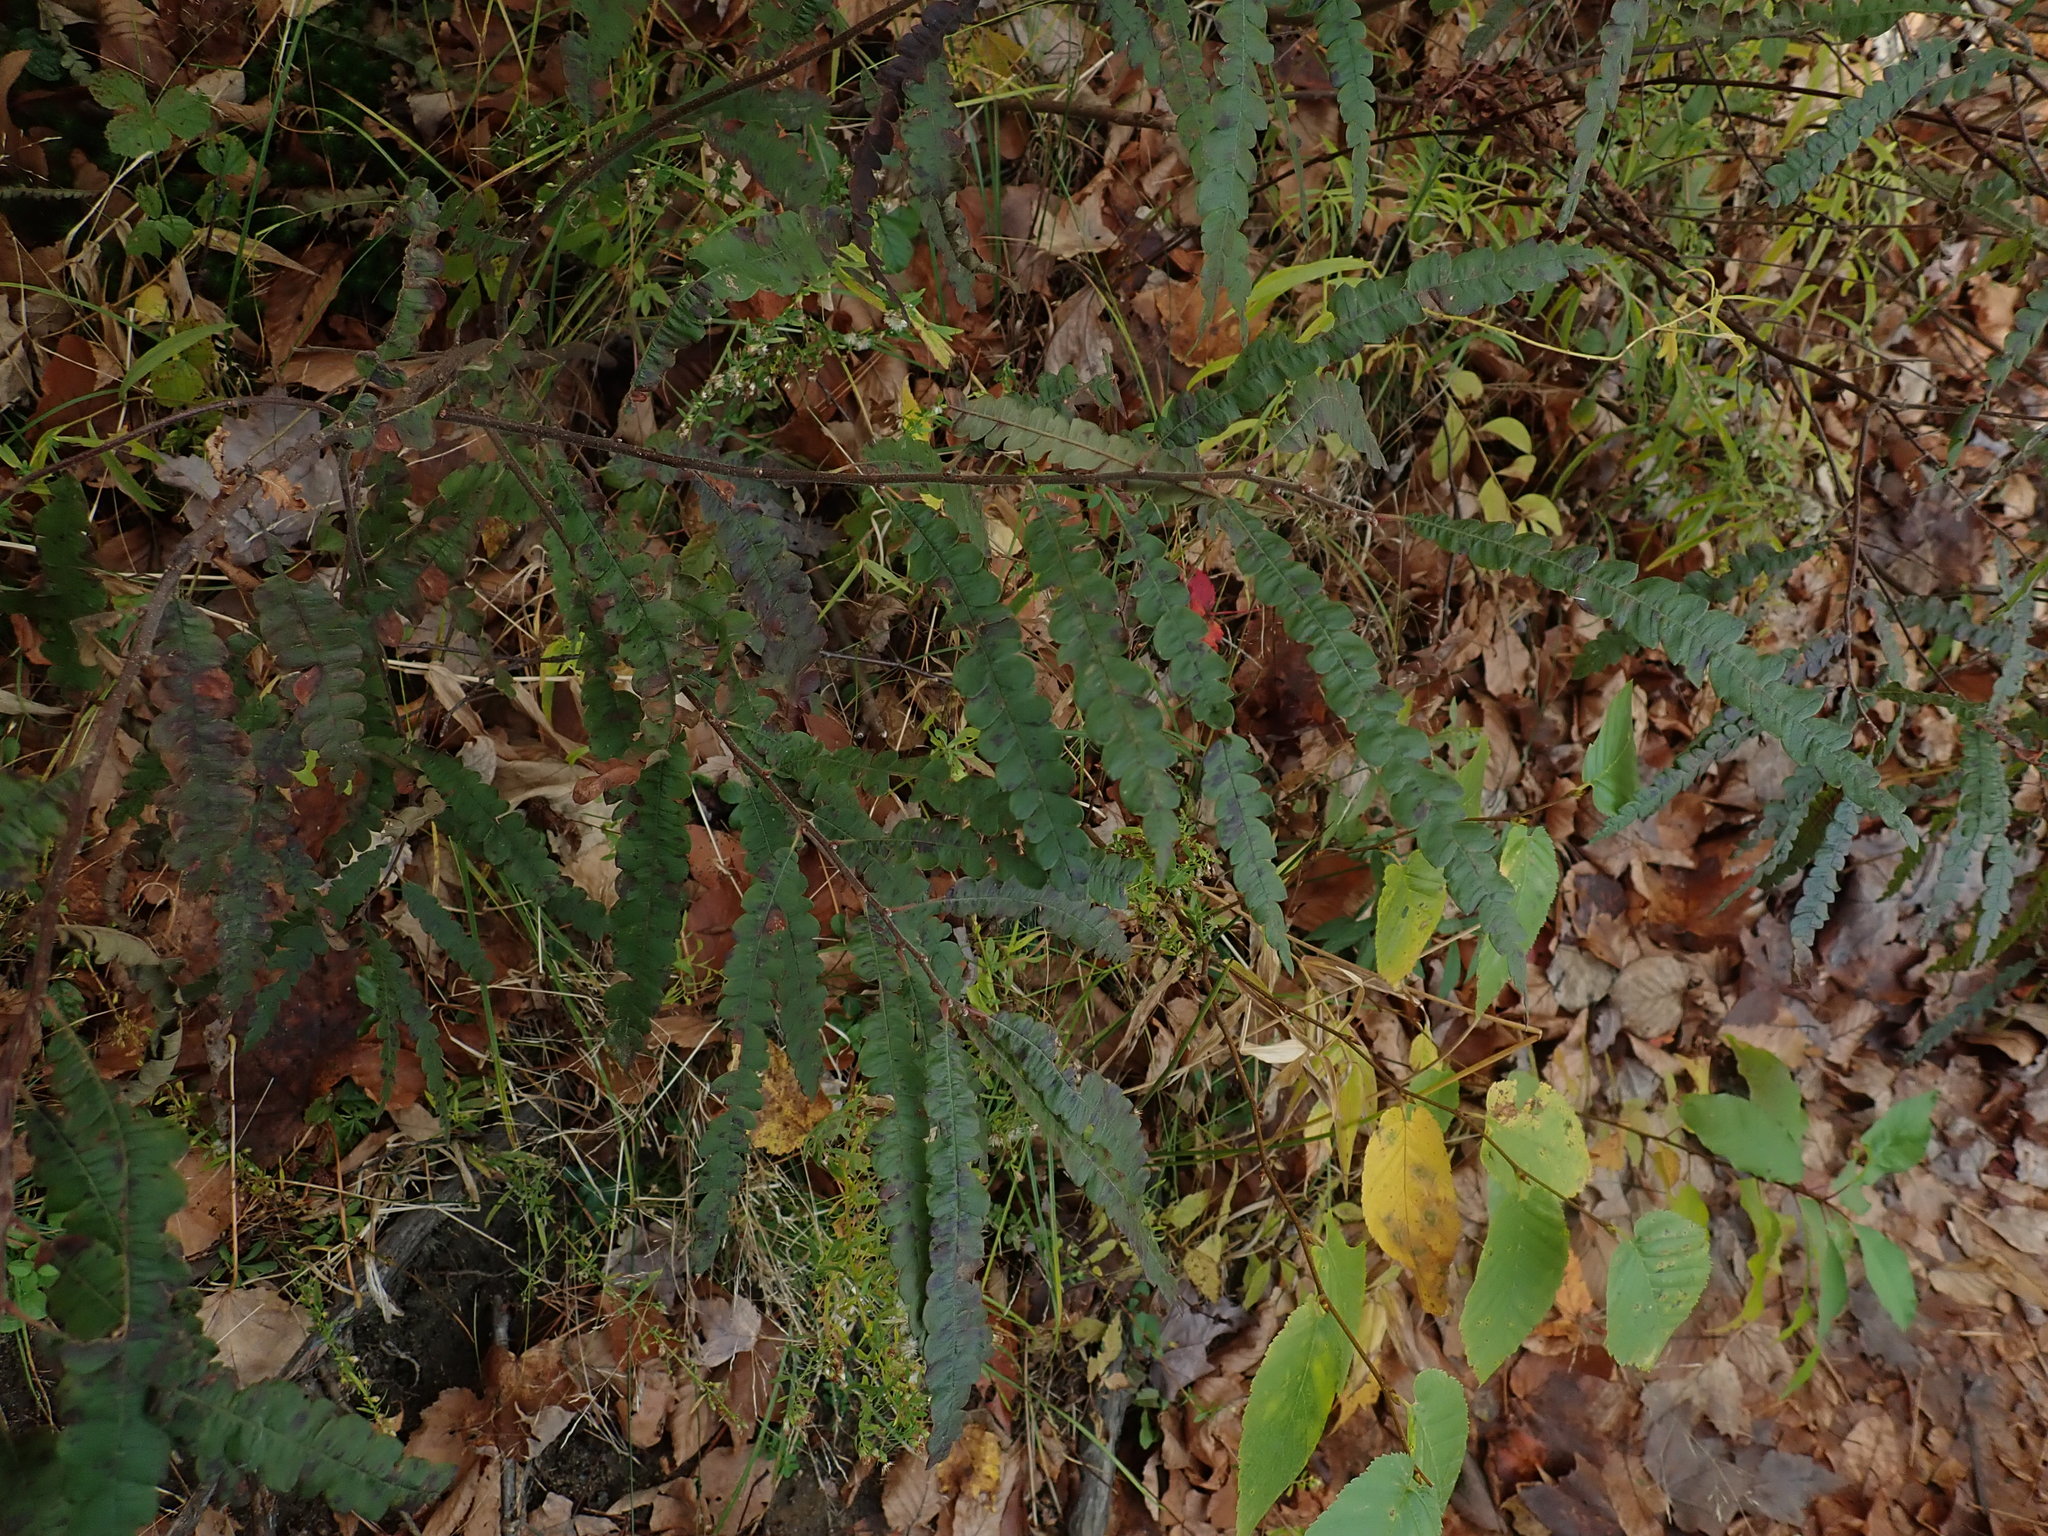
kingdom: Plantae
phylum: Tracheophyta
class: Magnoliopsida
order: Fagales
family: Myricaceae
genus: Comptonia
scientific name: Comptonia peregrina
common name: Sweet-fern
